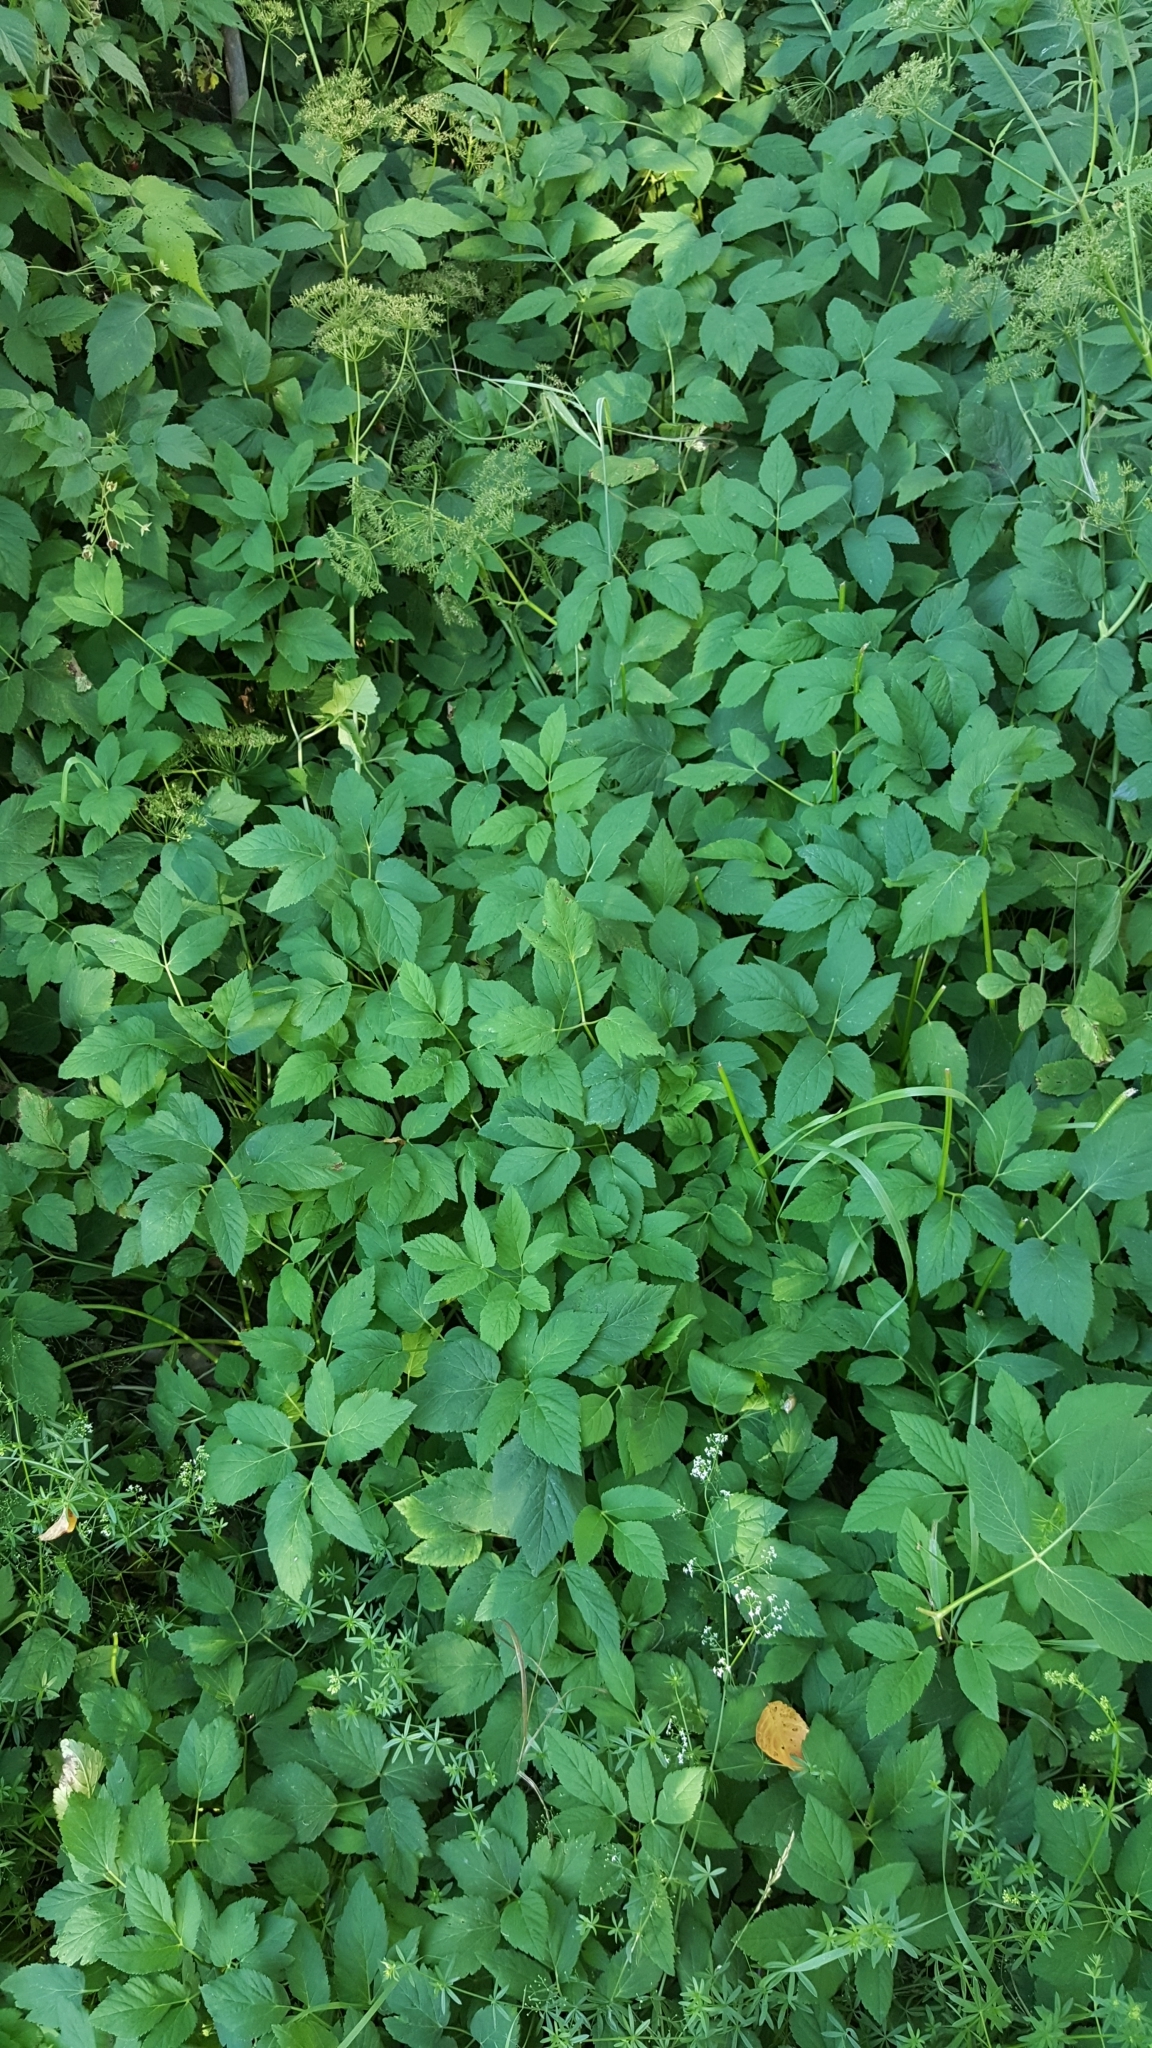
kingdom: Plantae
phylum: Tracheophyta
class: Magnoliopsida
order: Apiales
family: Apiaceae
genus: Aegopodium
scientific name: Aegopodium podagraria
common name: Ground-elder
